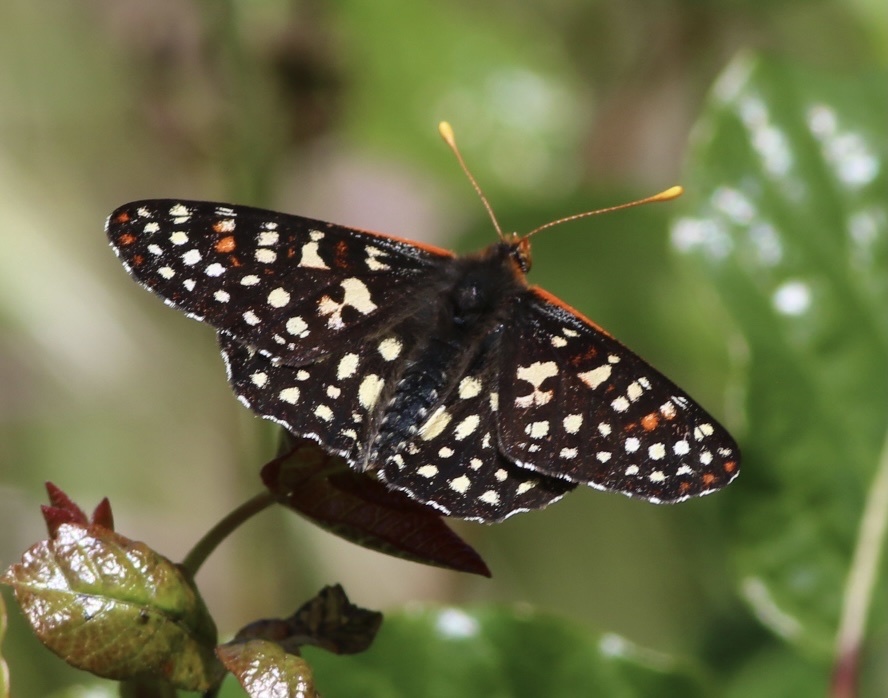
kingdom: Animalia
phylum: Arthropoda
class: Insecta
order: Lepidoptera
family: Nymphalidae
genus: Occidryas
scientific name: Occidryas chalcedona
